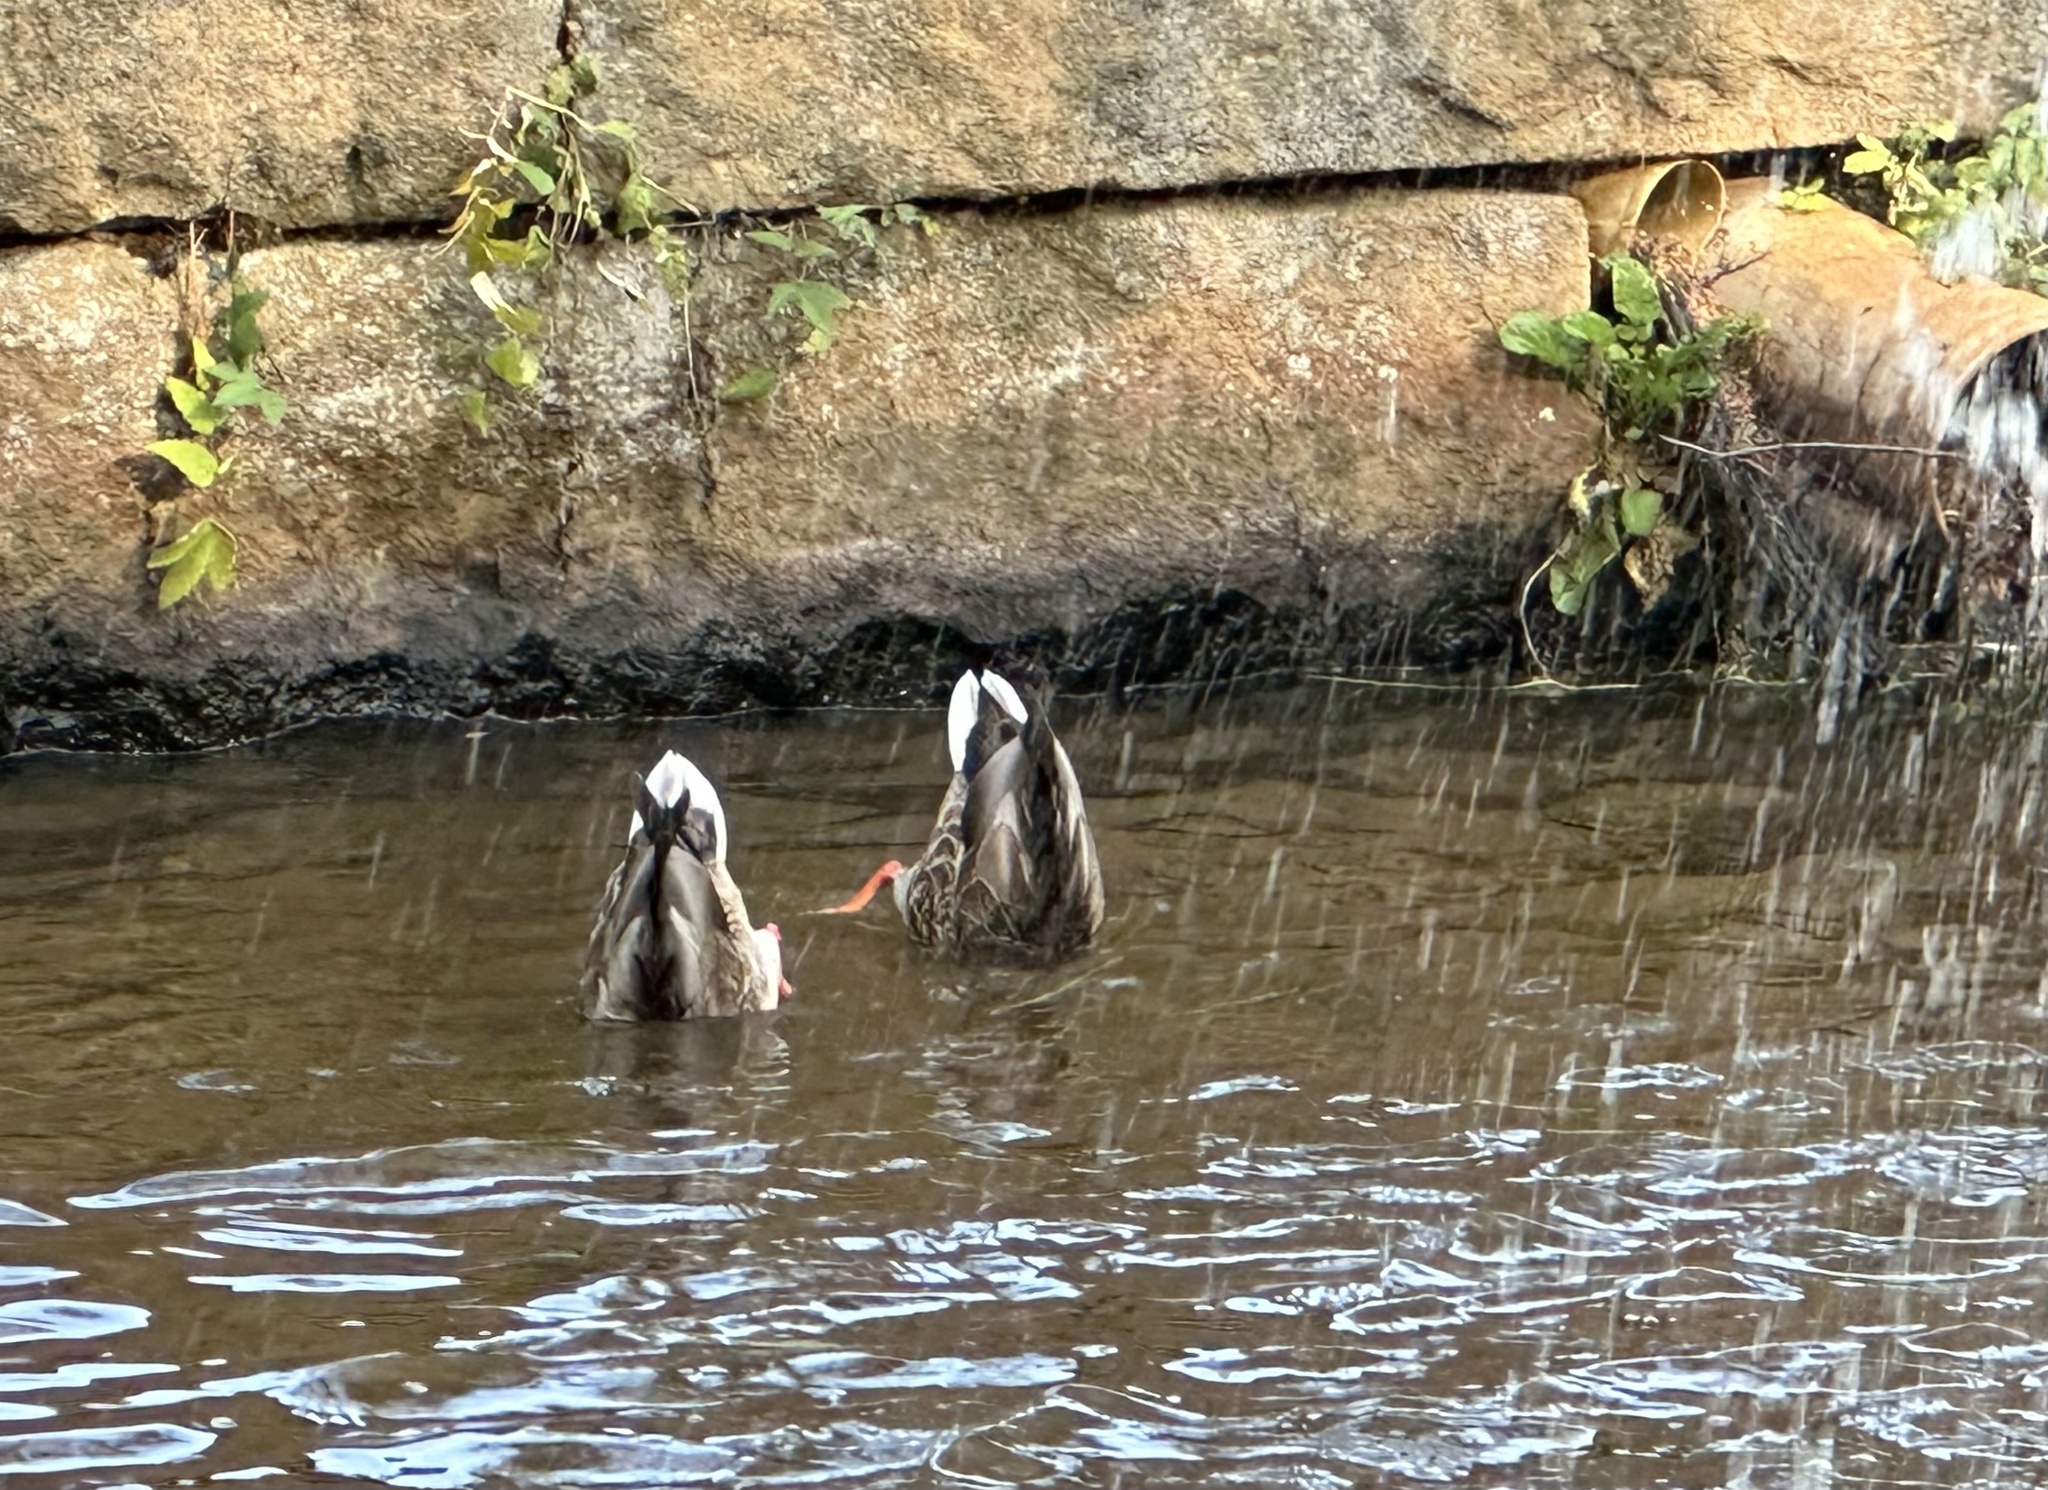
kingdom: Animalia
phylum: Chordata
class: Aves
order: Anseriformes
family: Anatidae
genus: Anas
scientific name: Anas platyrhynchos
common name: Mallard
